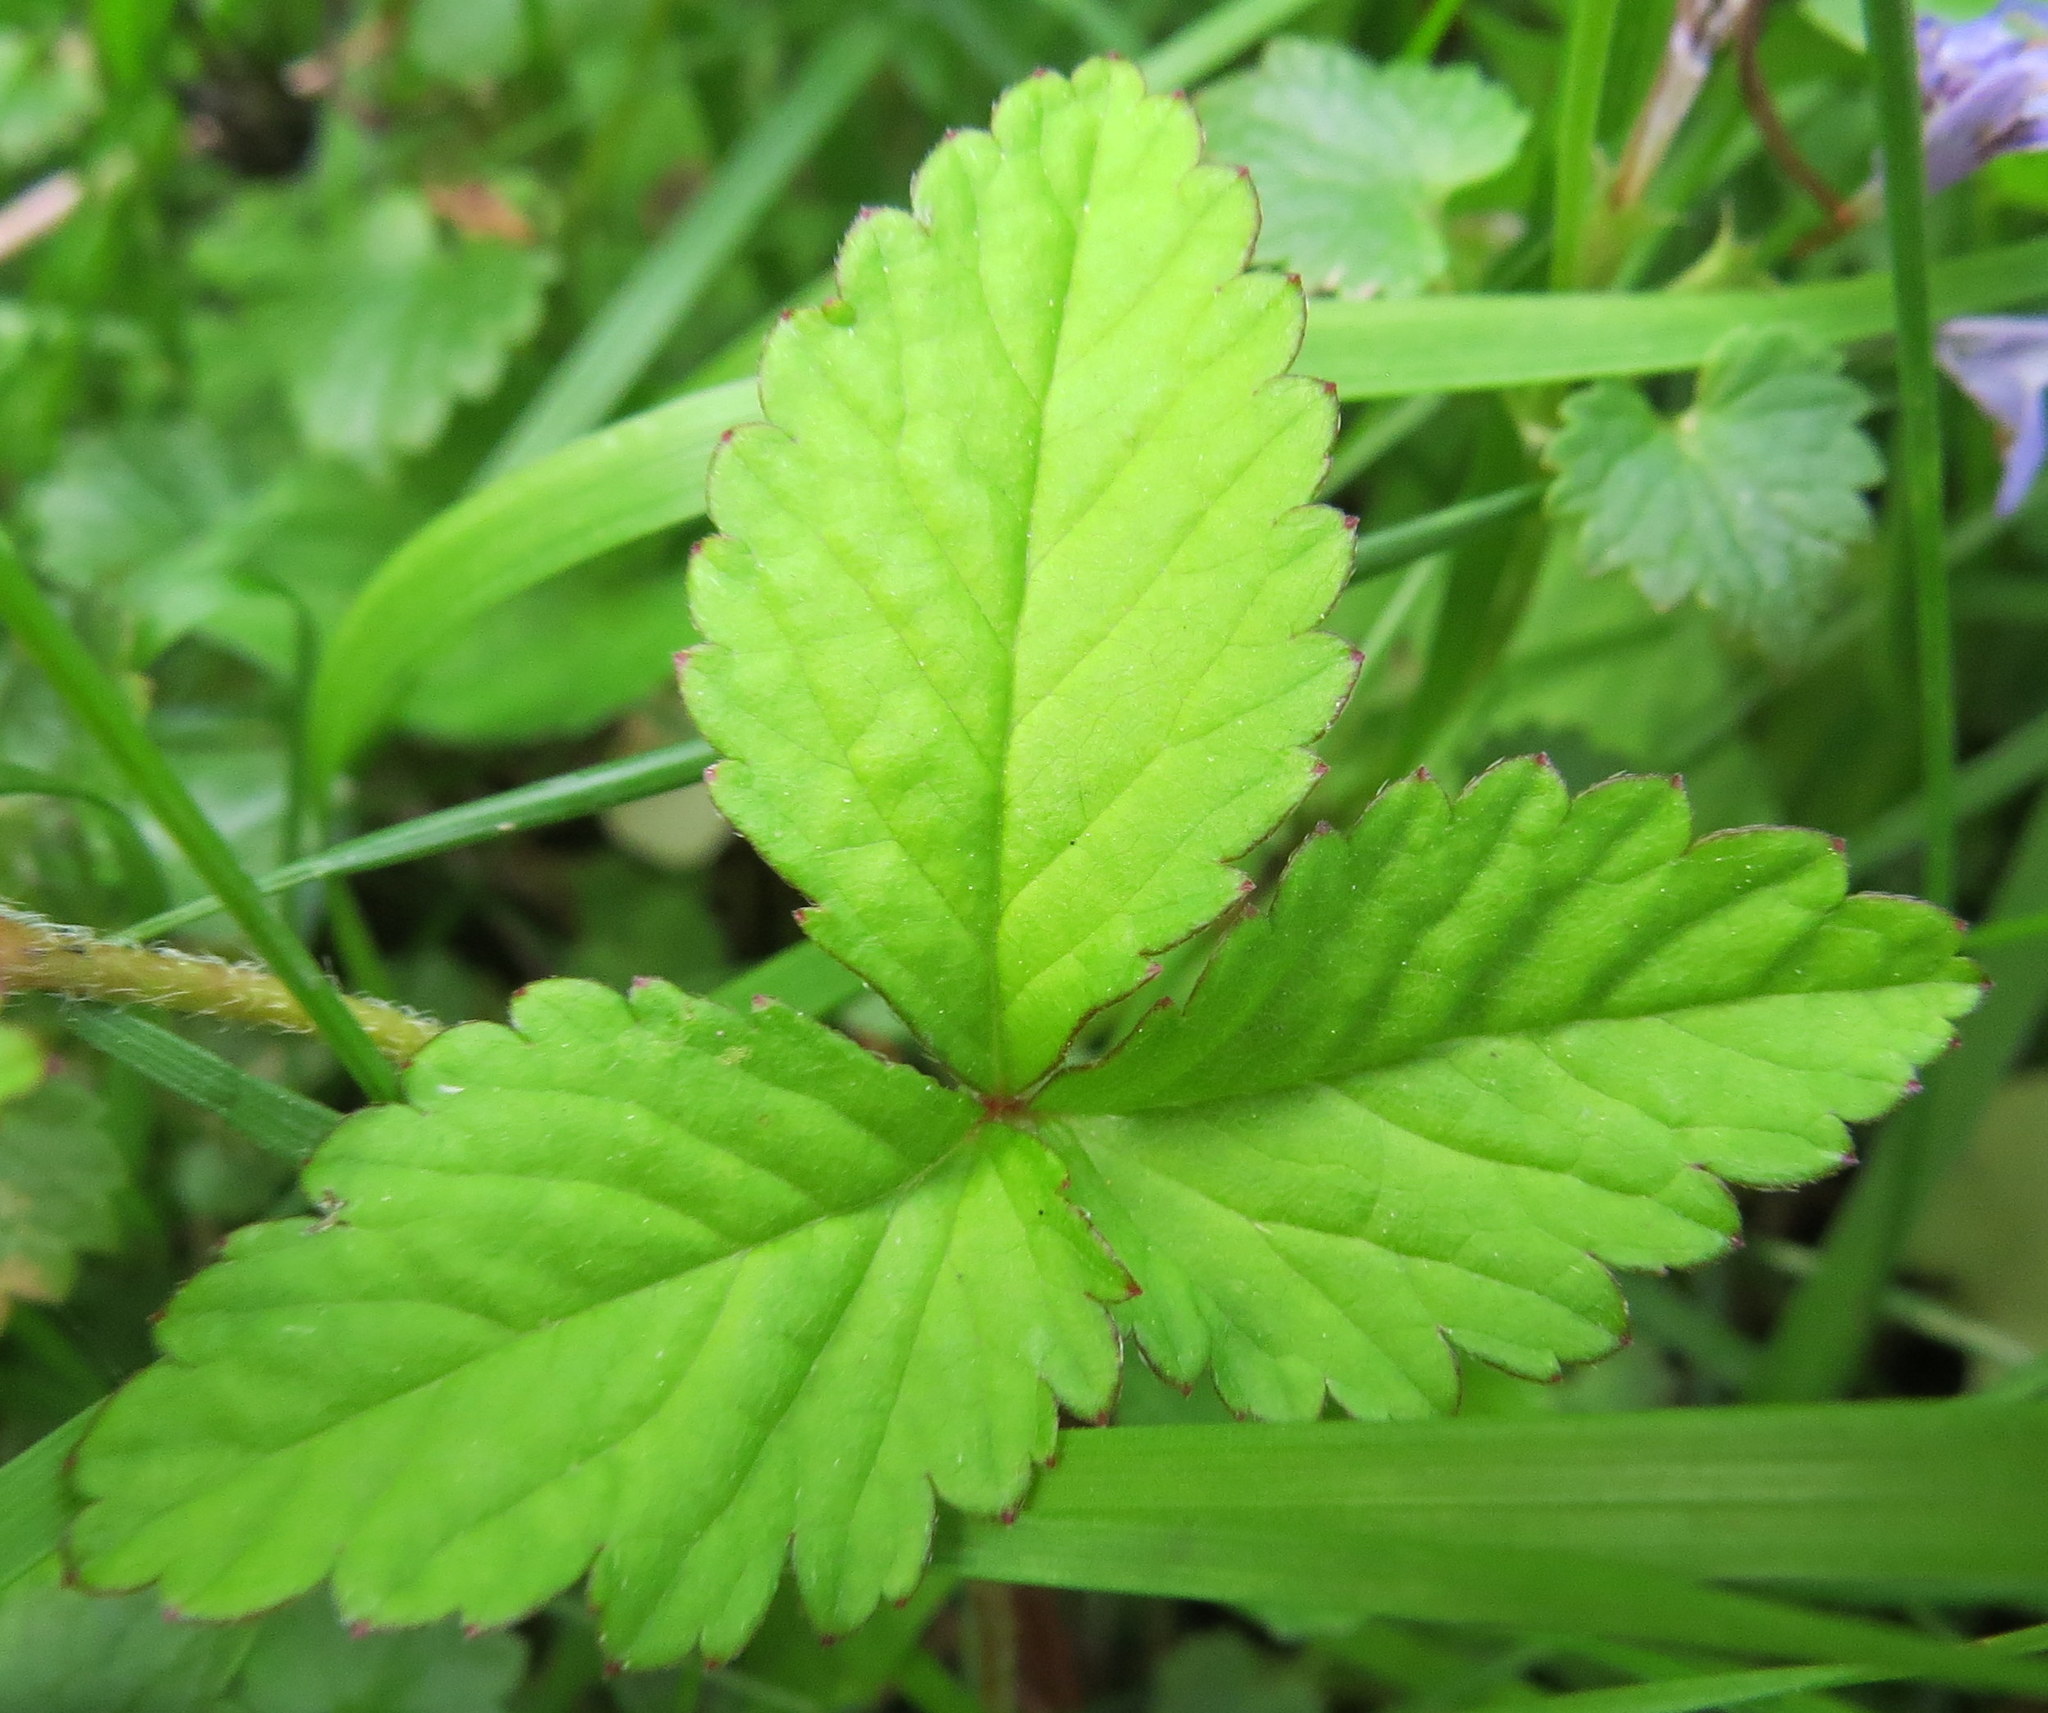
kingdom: Plantae
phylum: Tracheophyta
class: Magnoliopsida
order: Rosales
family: Rosaceae
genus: Potentilla
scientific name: Potentilla indica
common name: Yellow-flowered strawberry
